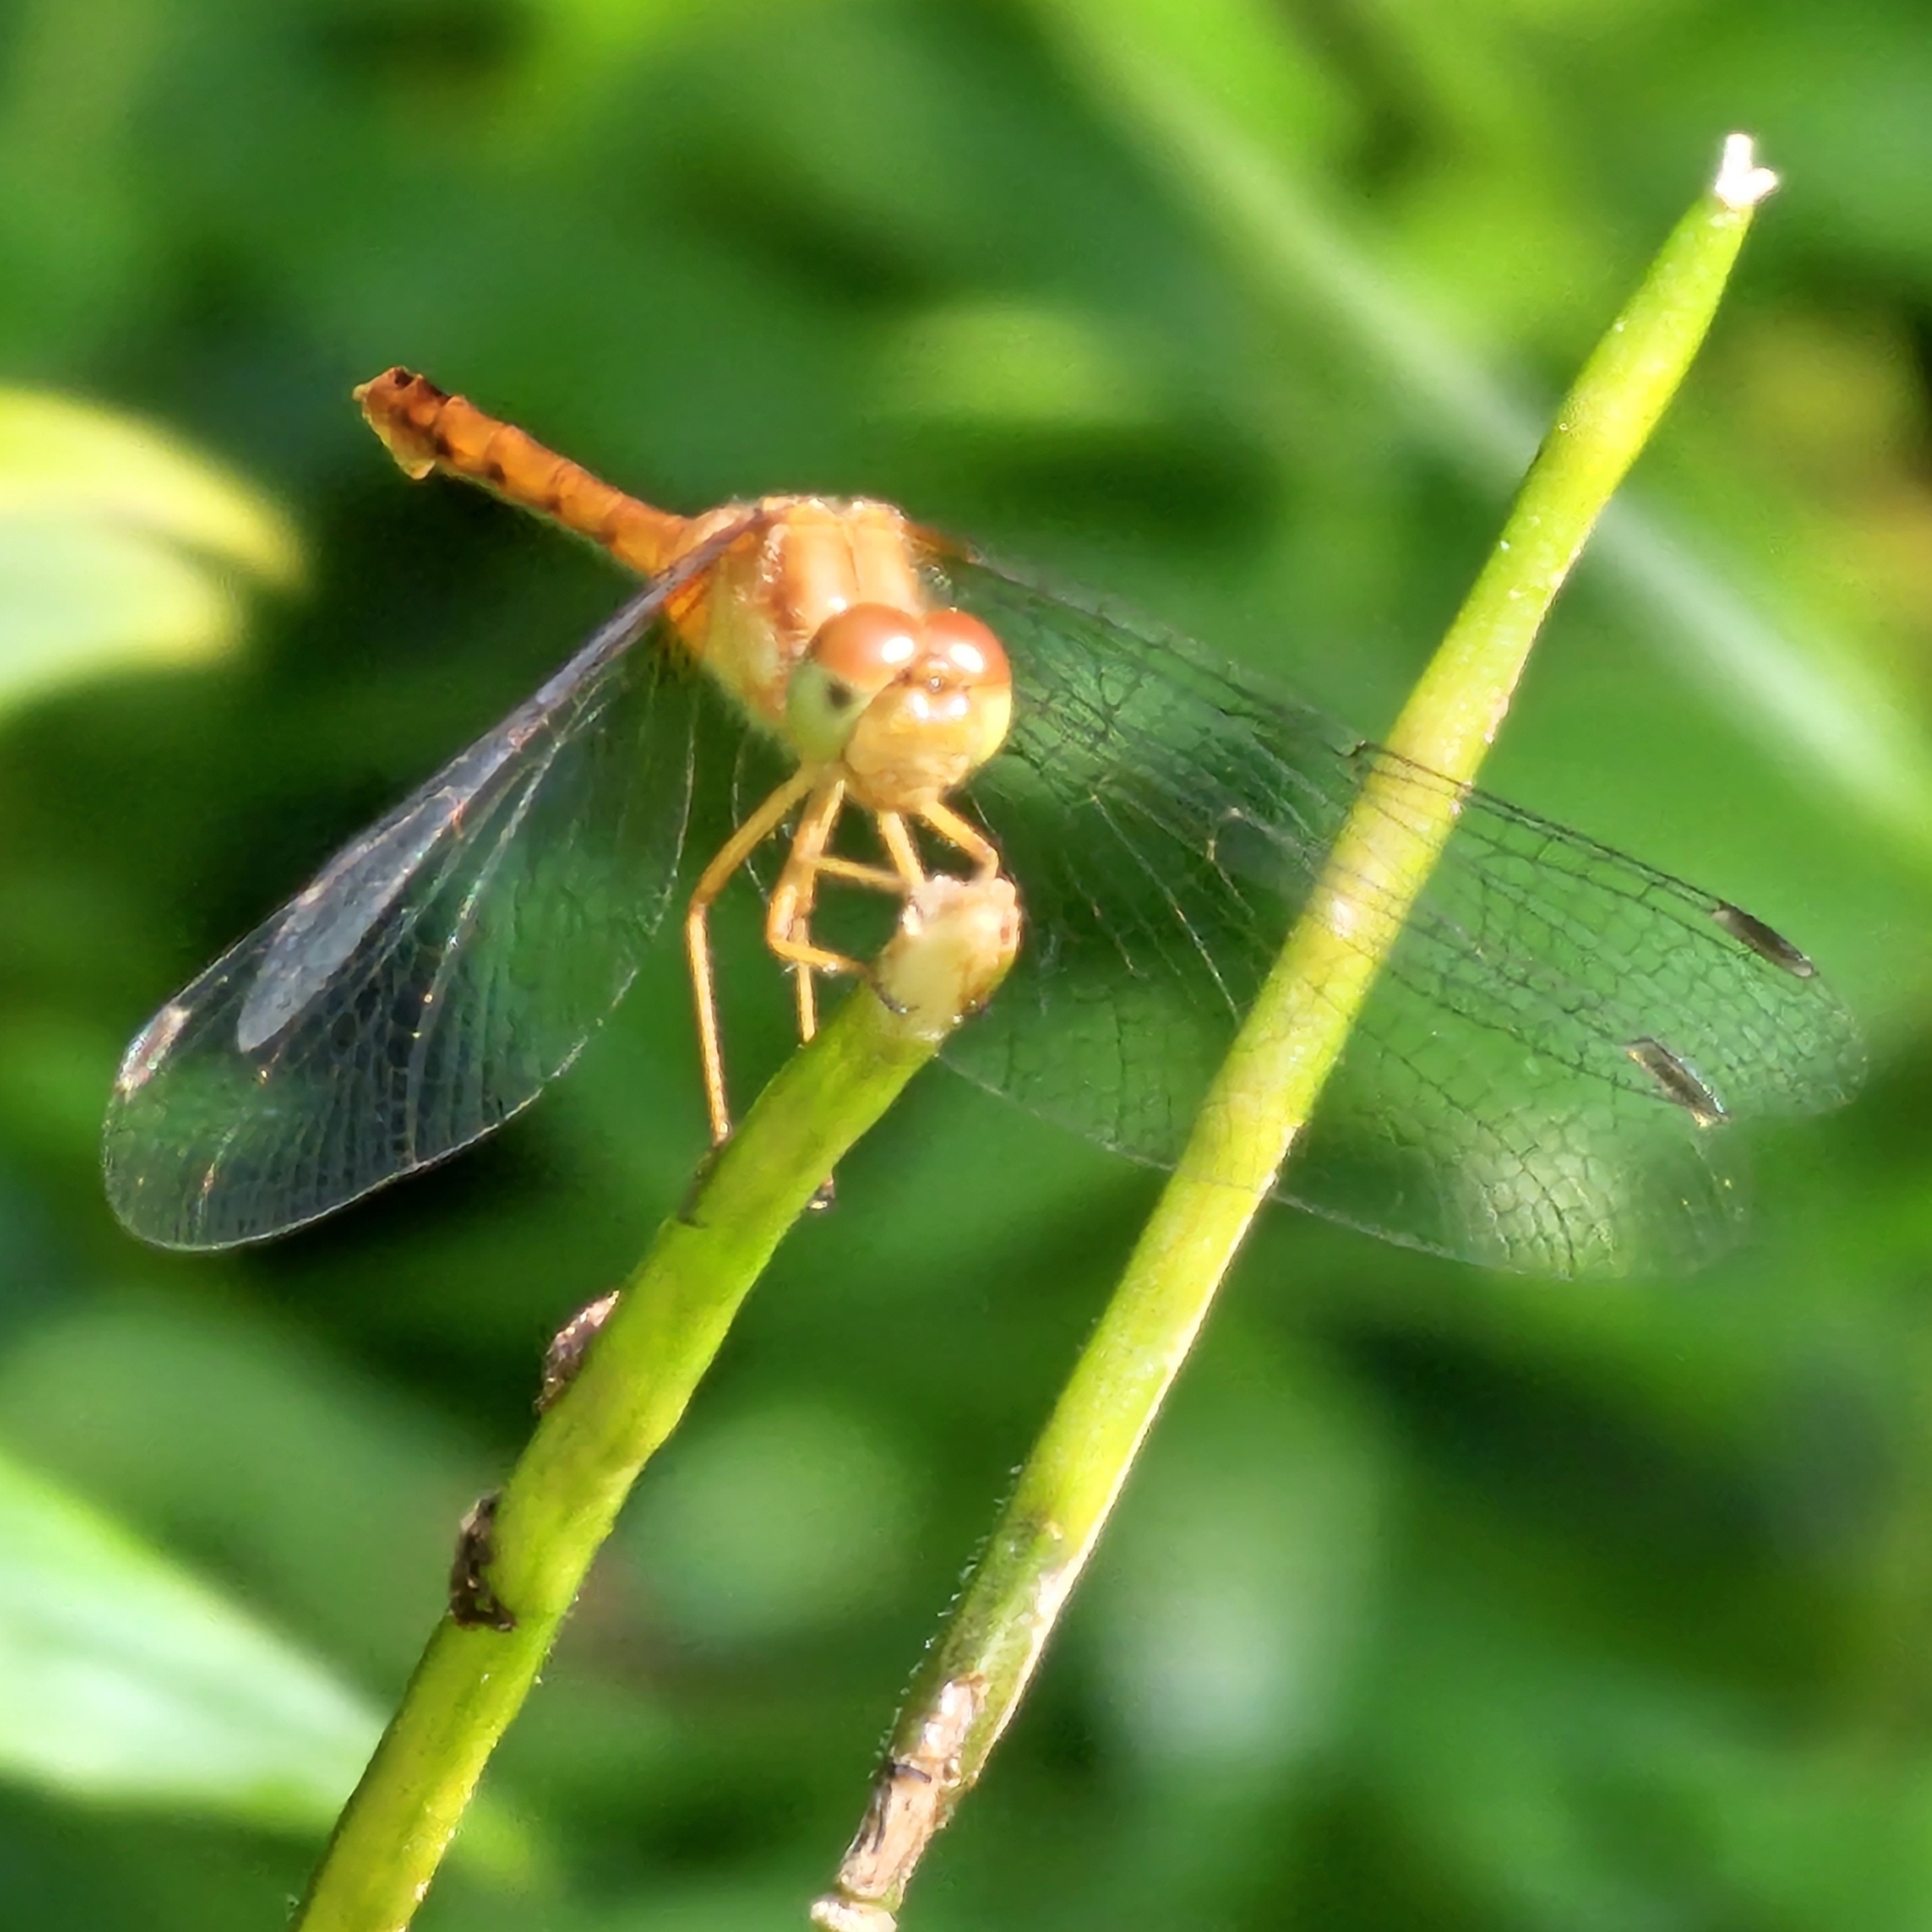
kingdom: Animalia
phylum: Arthropoda
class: Insecta
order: Odonata
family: Libellulidae
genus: Sympetrum
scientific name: Sympetrum vicinum
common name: Autumn meadowhawk
